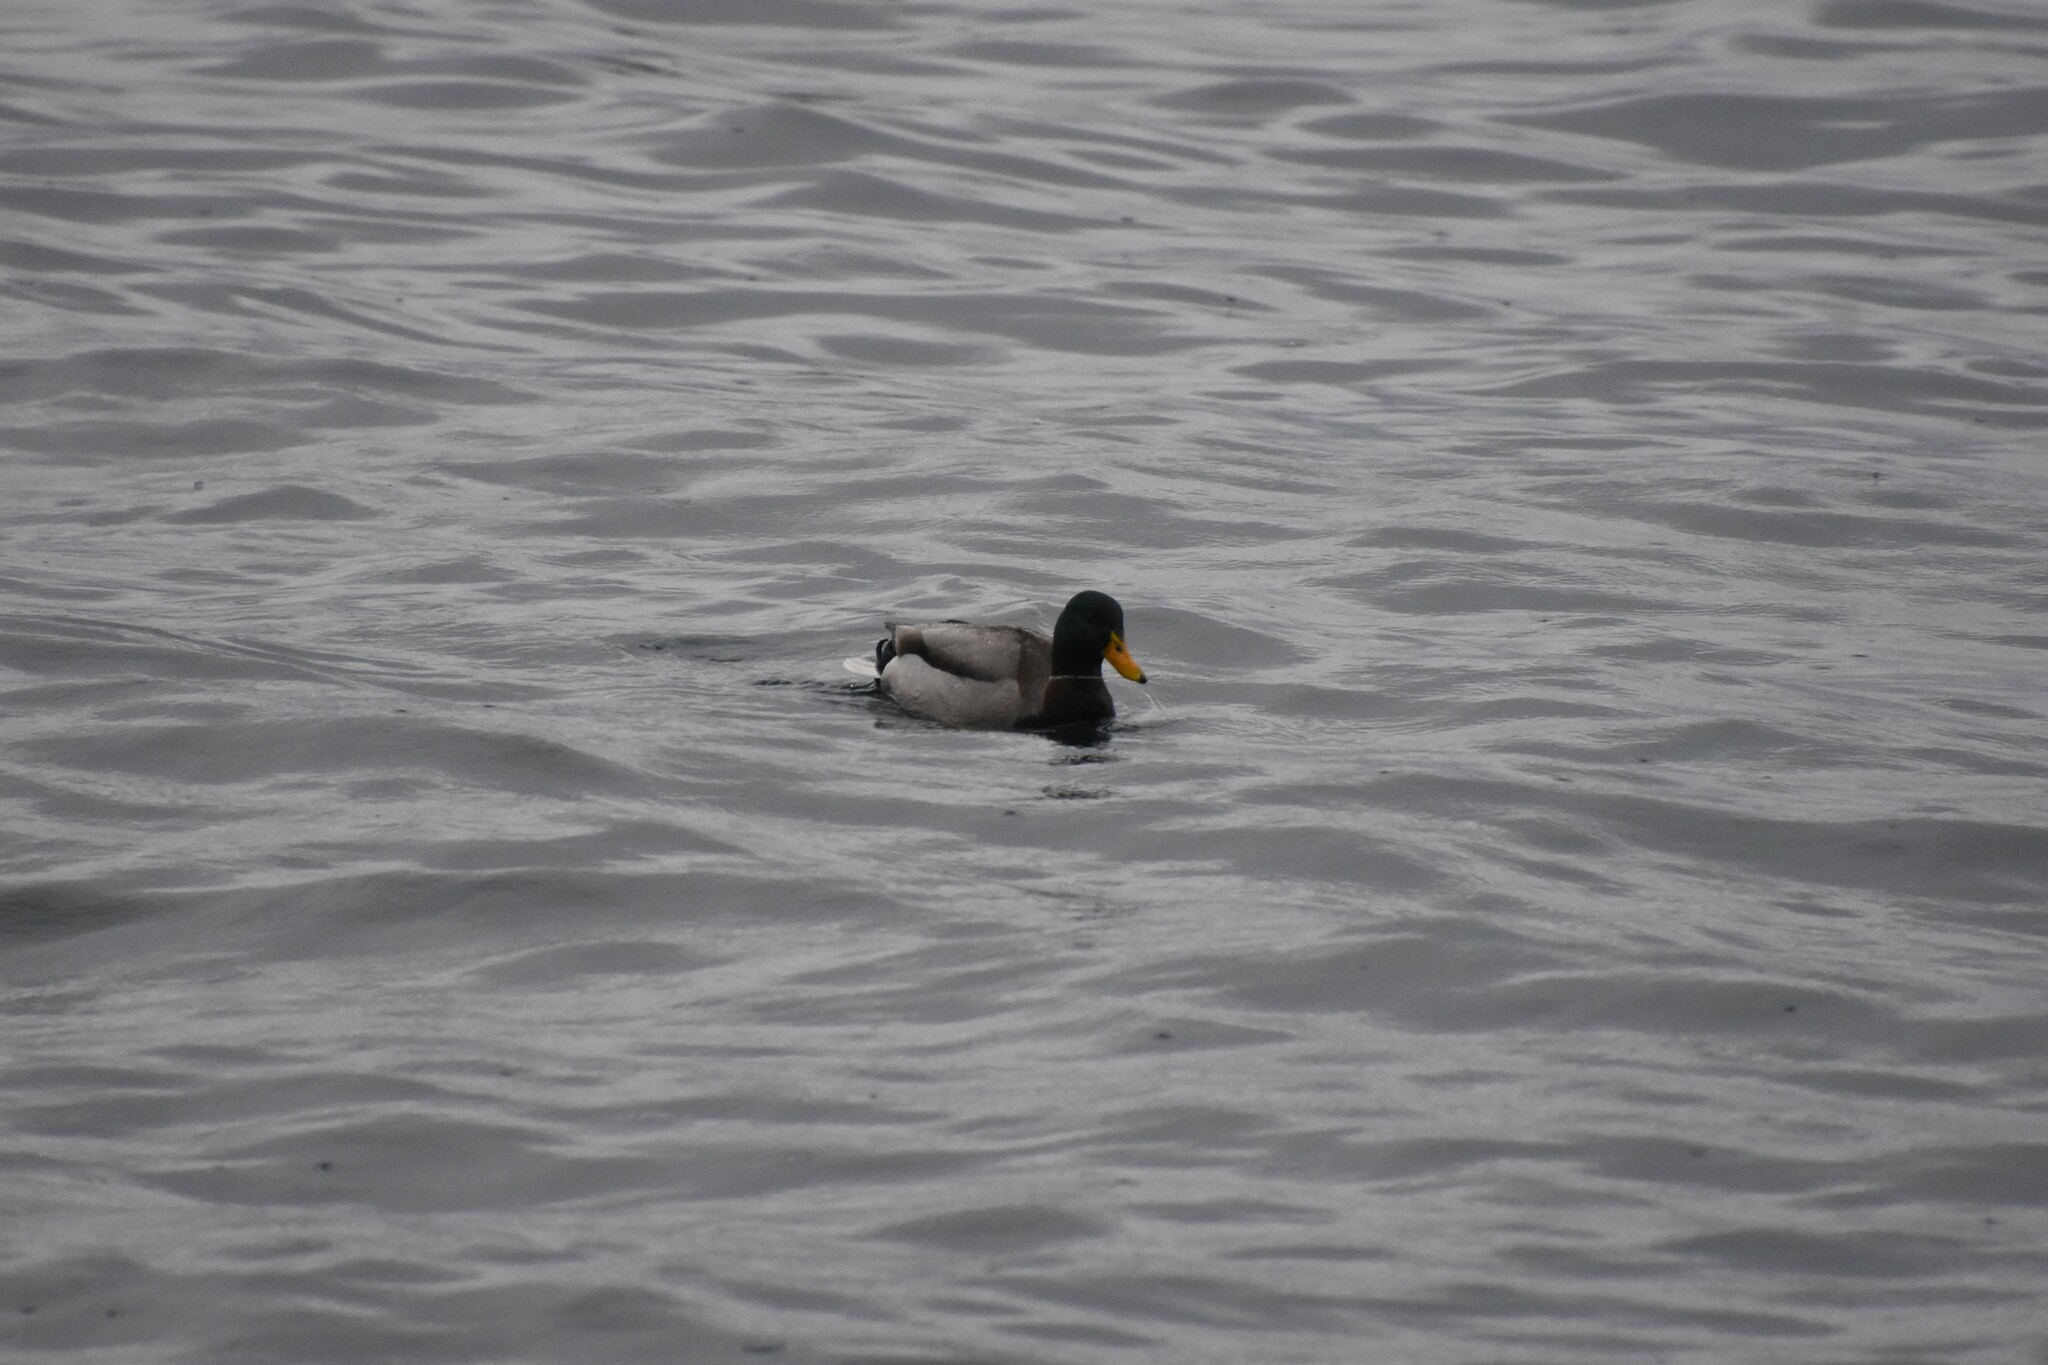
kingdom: Animalia
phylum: Chordata
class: Aves
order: Anseriformes
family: Anatidae
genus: Anas
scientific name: Anas platyrhynchos
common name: Mallard
